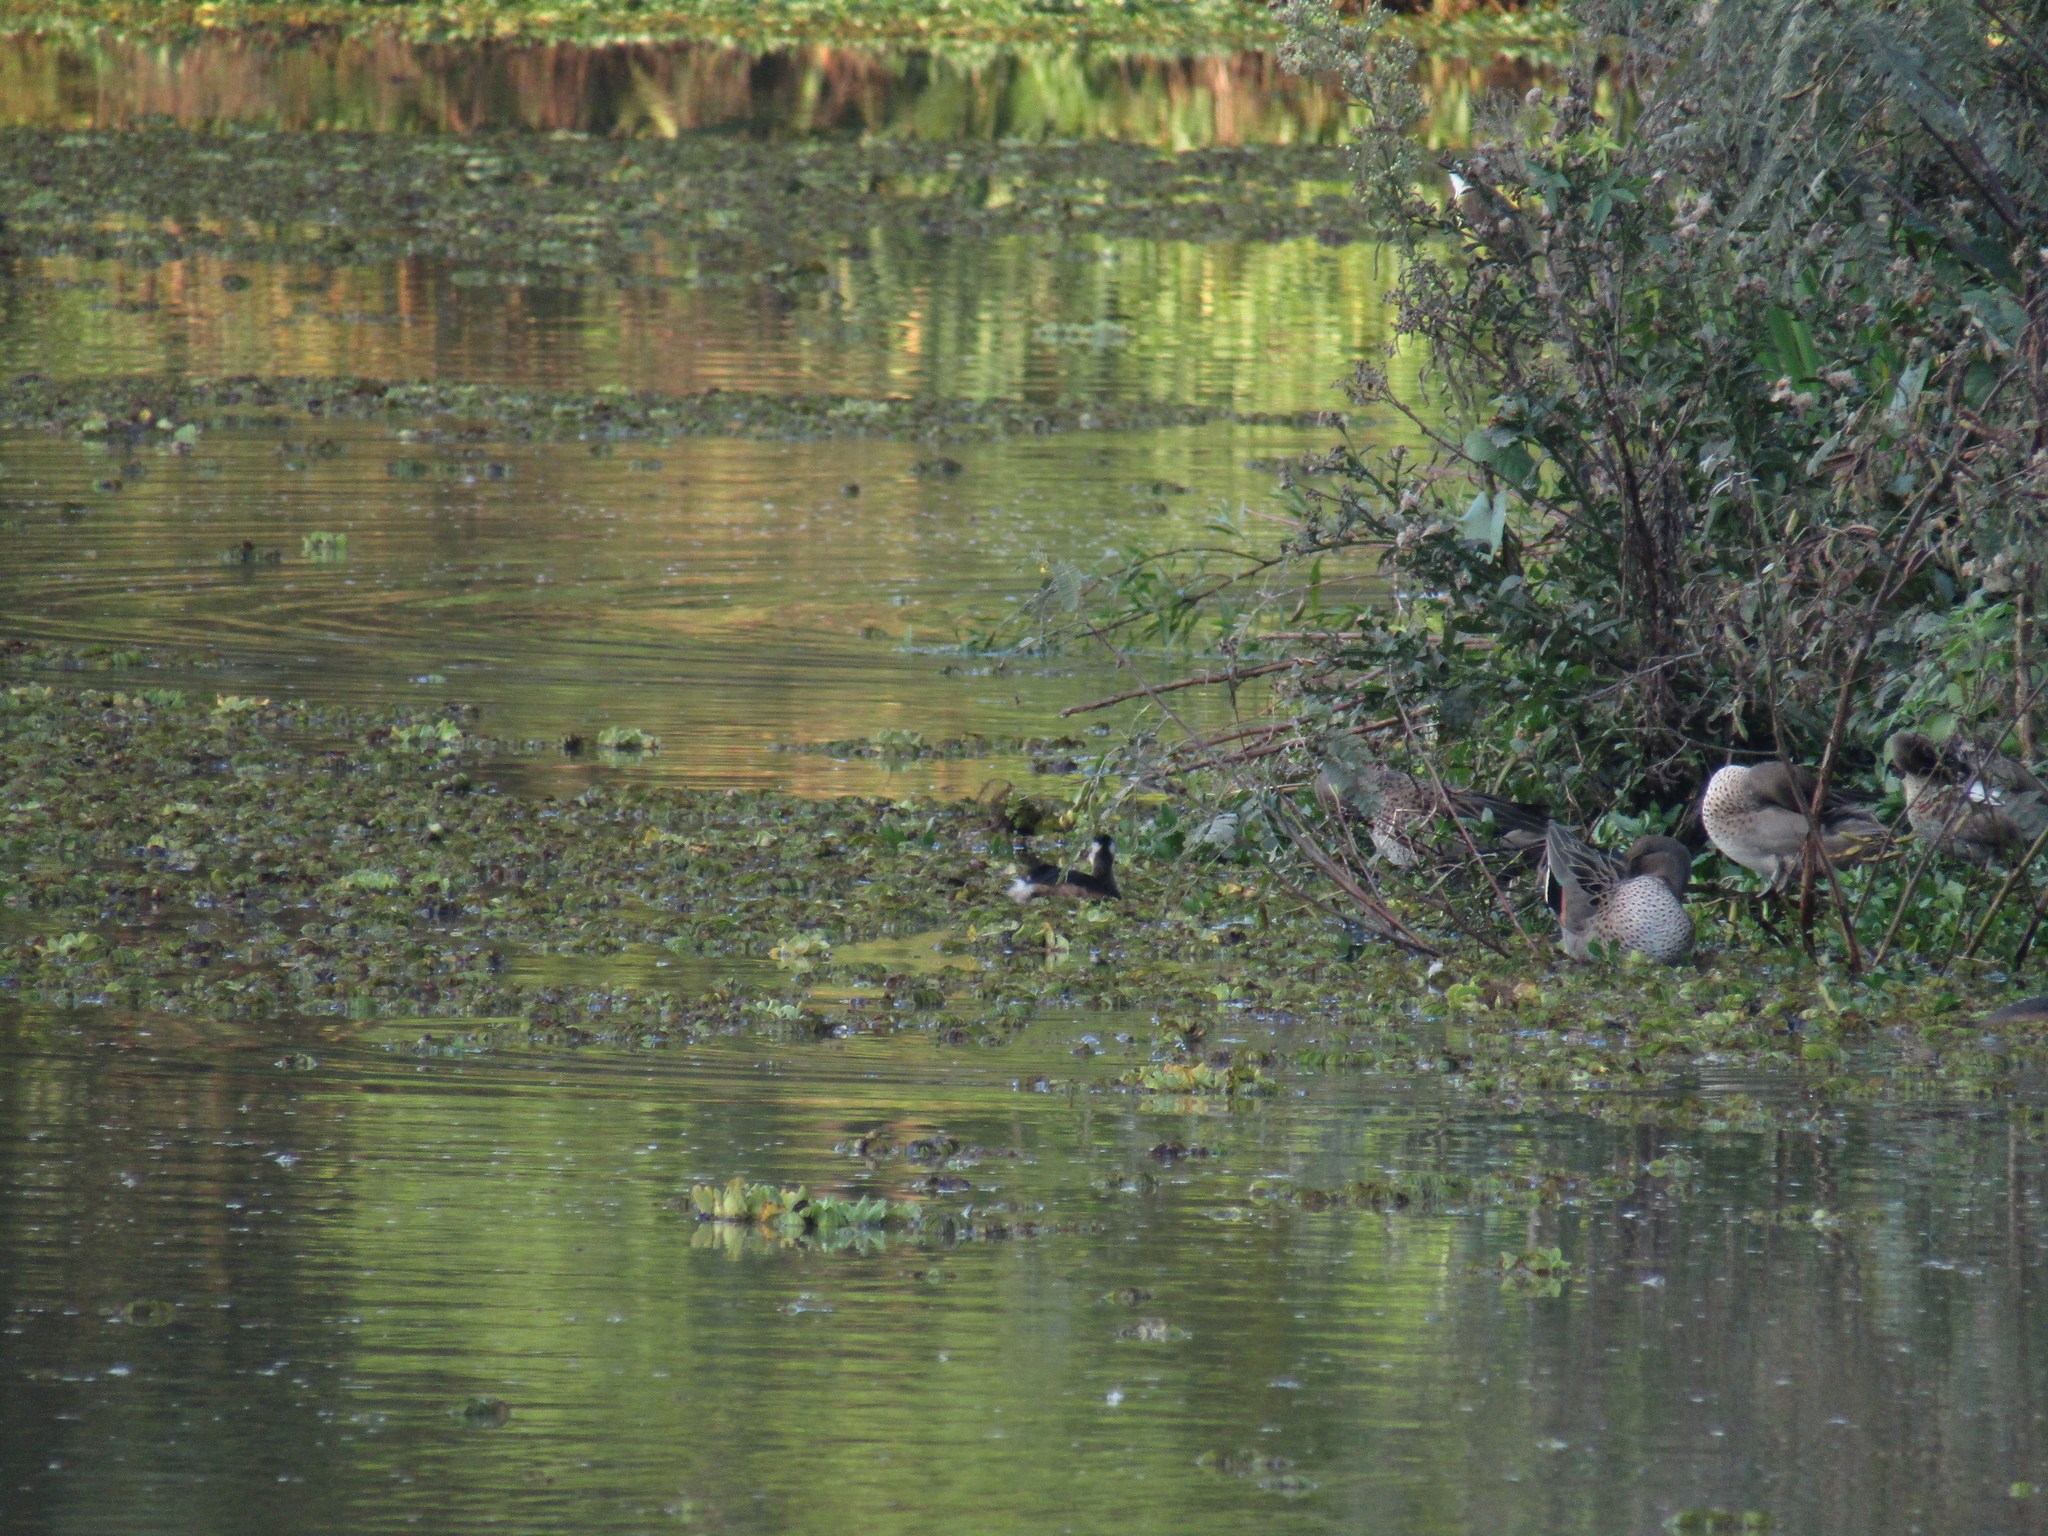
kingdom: Animalia
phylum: Chordata
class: Aves
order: Podicipediformes
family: Podicipedidae
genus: Rollandia
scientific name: Rollandia rolland
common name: White-tufted grebe
